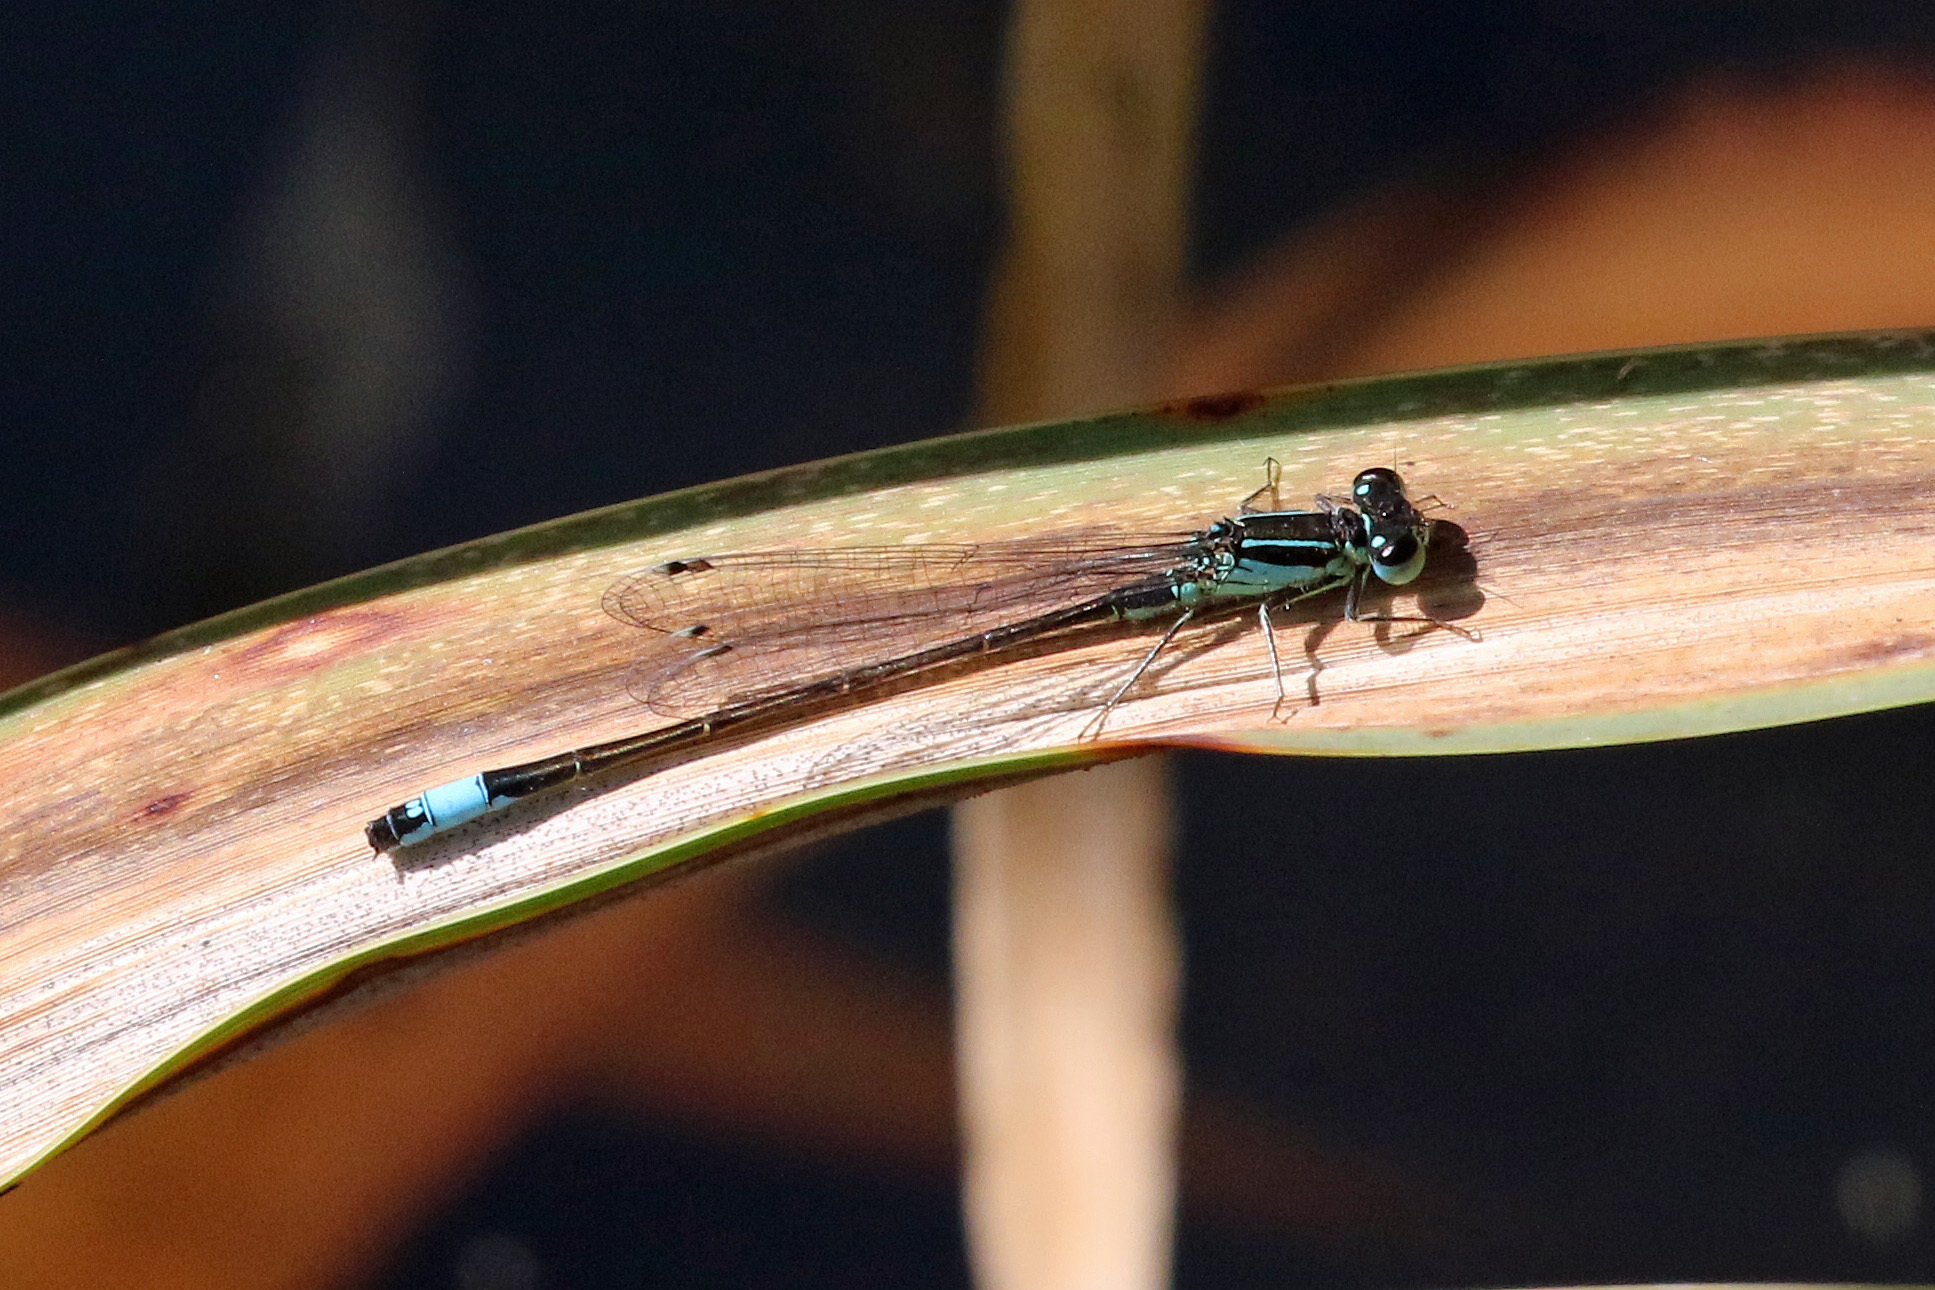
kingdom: Animalia
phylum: Arthropoda
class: Insecta
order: Odonata
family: Coenagrionidae
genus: Ischnura
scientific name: Ischnura elegans
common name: Blue-tailed damselfly
